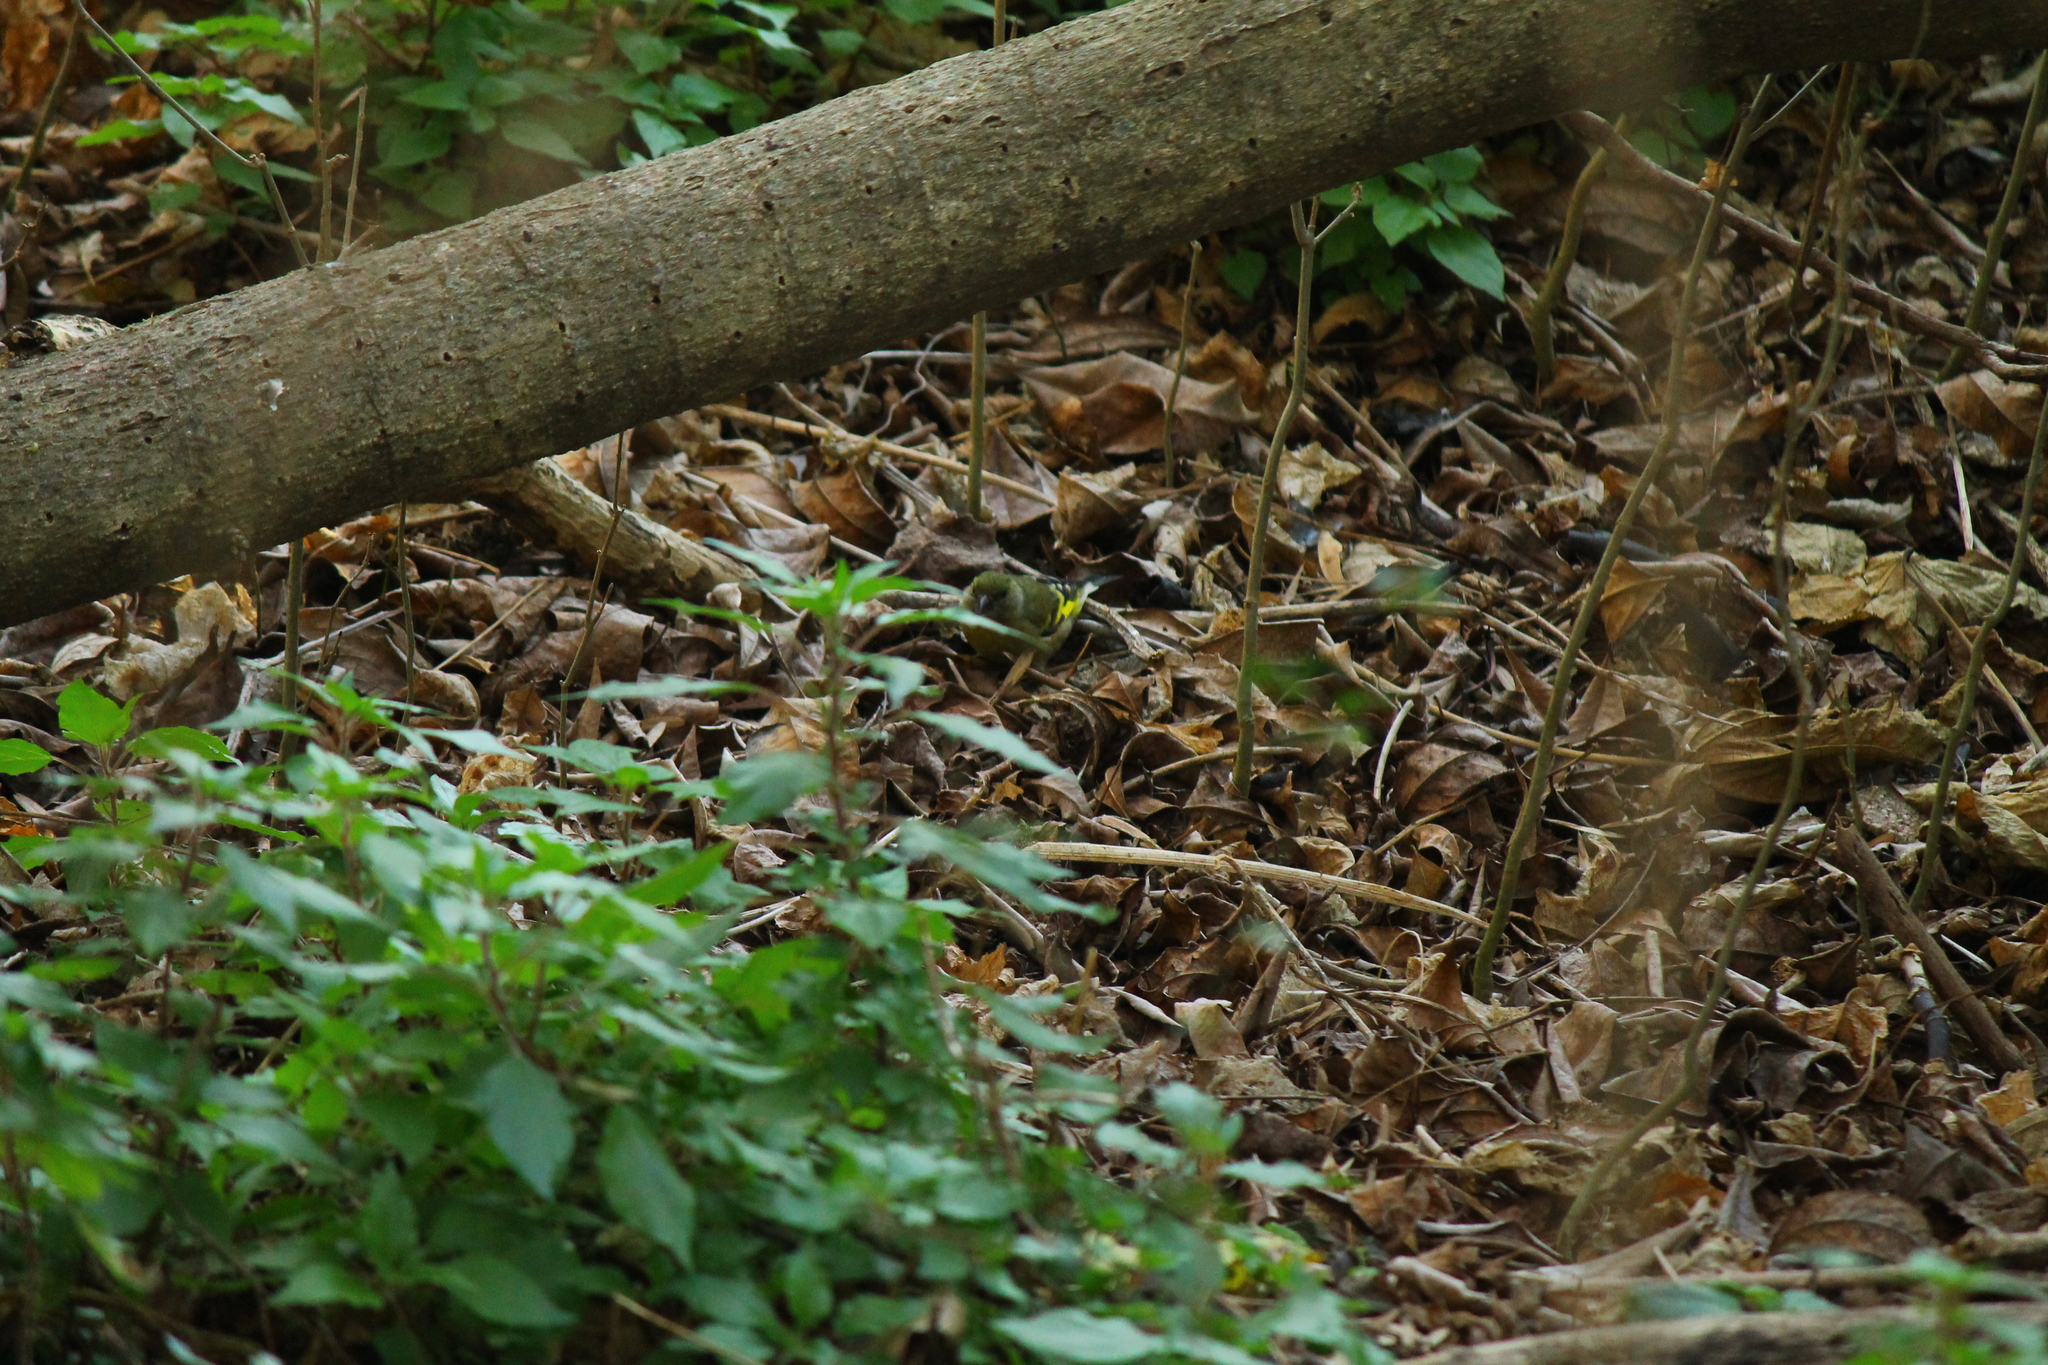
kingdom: Animalia
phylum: Chordata
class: Aves
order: Passeriformes
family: Fringillidae
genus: Spinus
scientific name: Spinus magellanicus
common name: Hooded siskin
